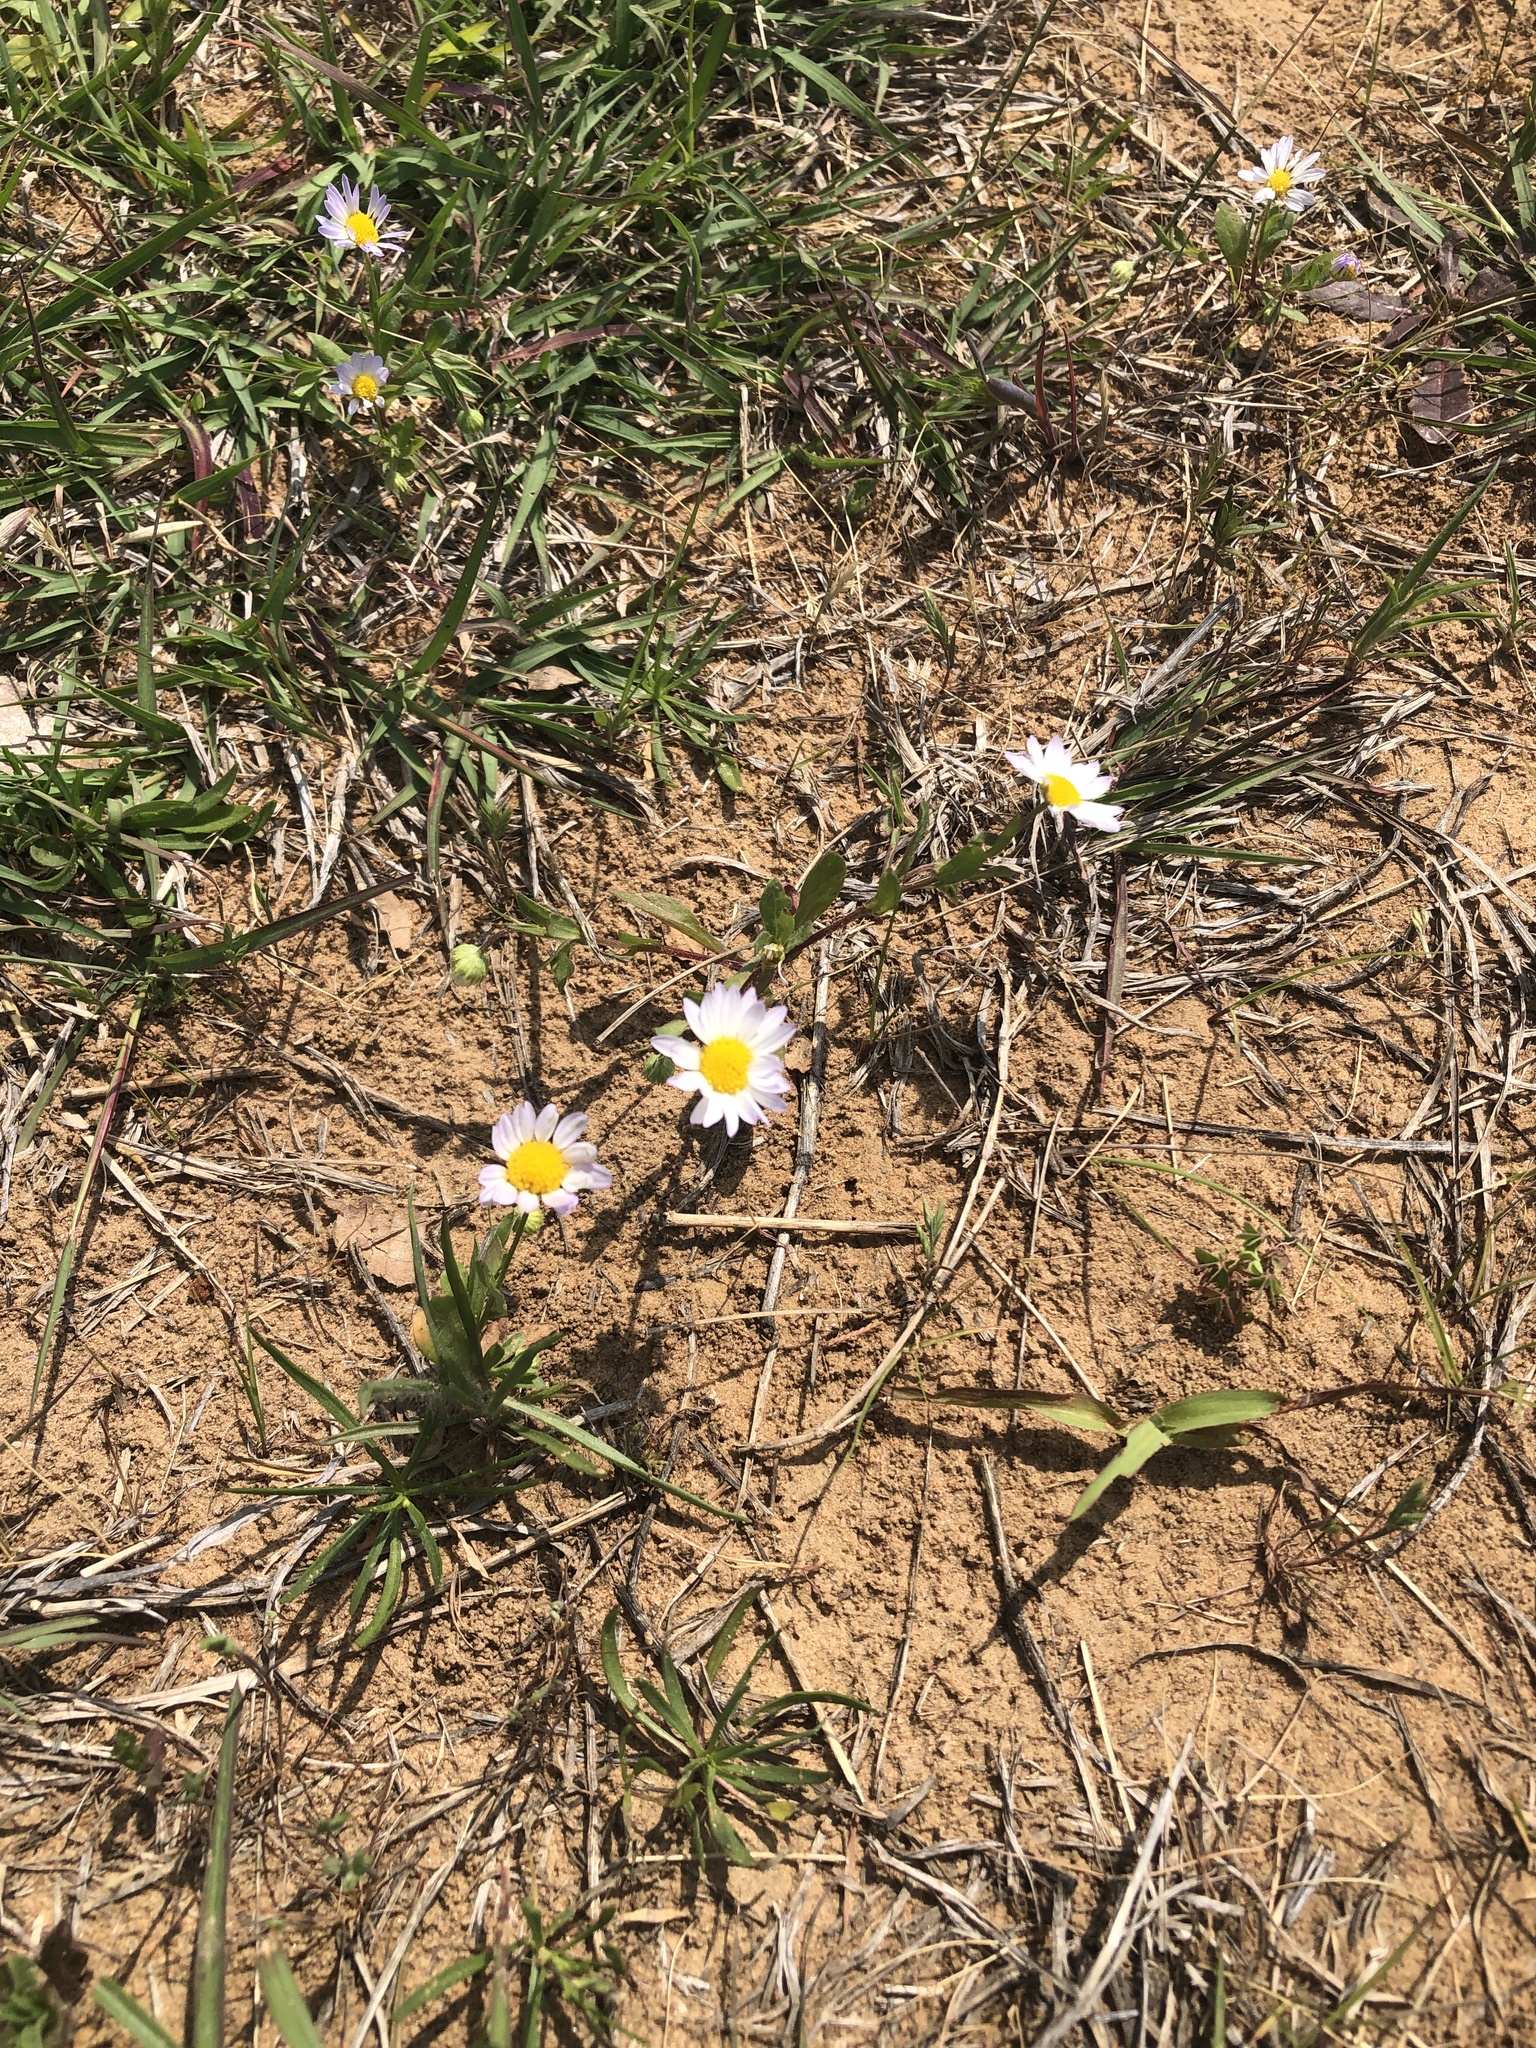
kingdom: Plantae
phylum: Tracheophyta
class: Magnoliopsida
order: Asterales
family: Asteraceae
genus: Astranthium
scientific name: Astranthium ciliatum
